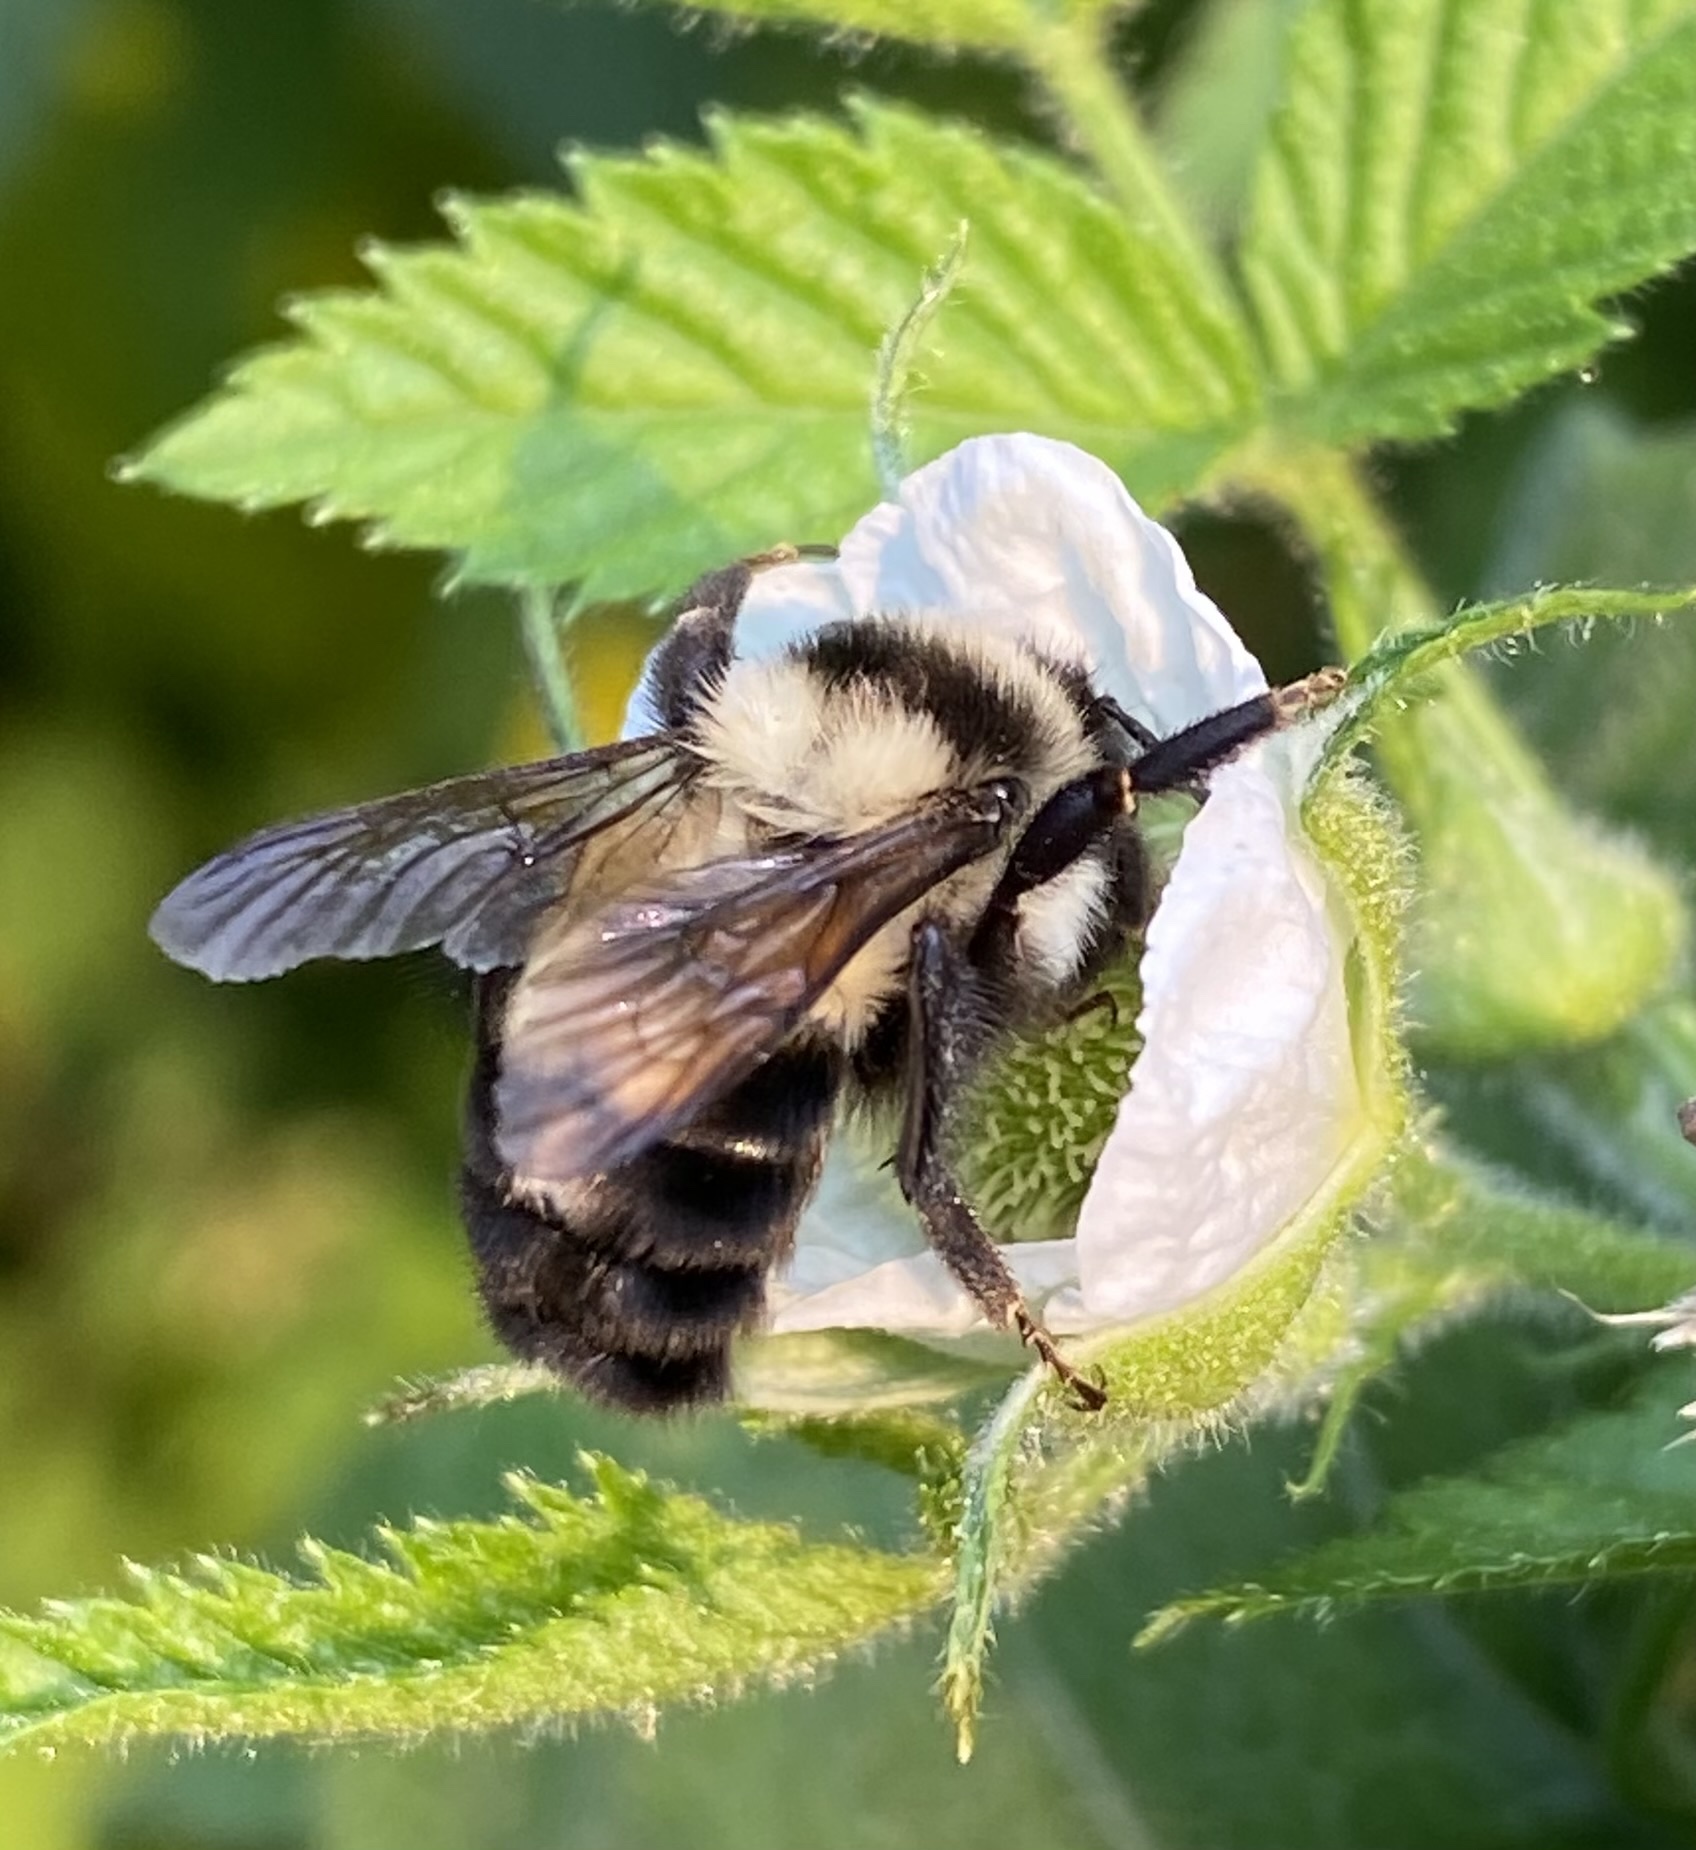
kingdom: Animalia
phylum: Arthropoda
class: Insecta
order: Hymenoptera
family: Apidae
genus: Bombus
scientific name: Bombus wilmattae
